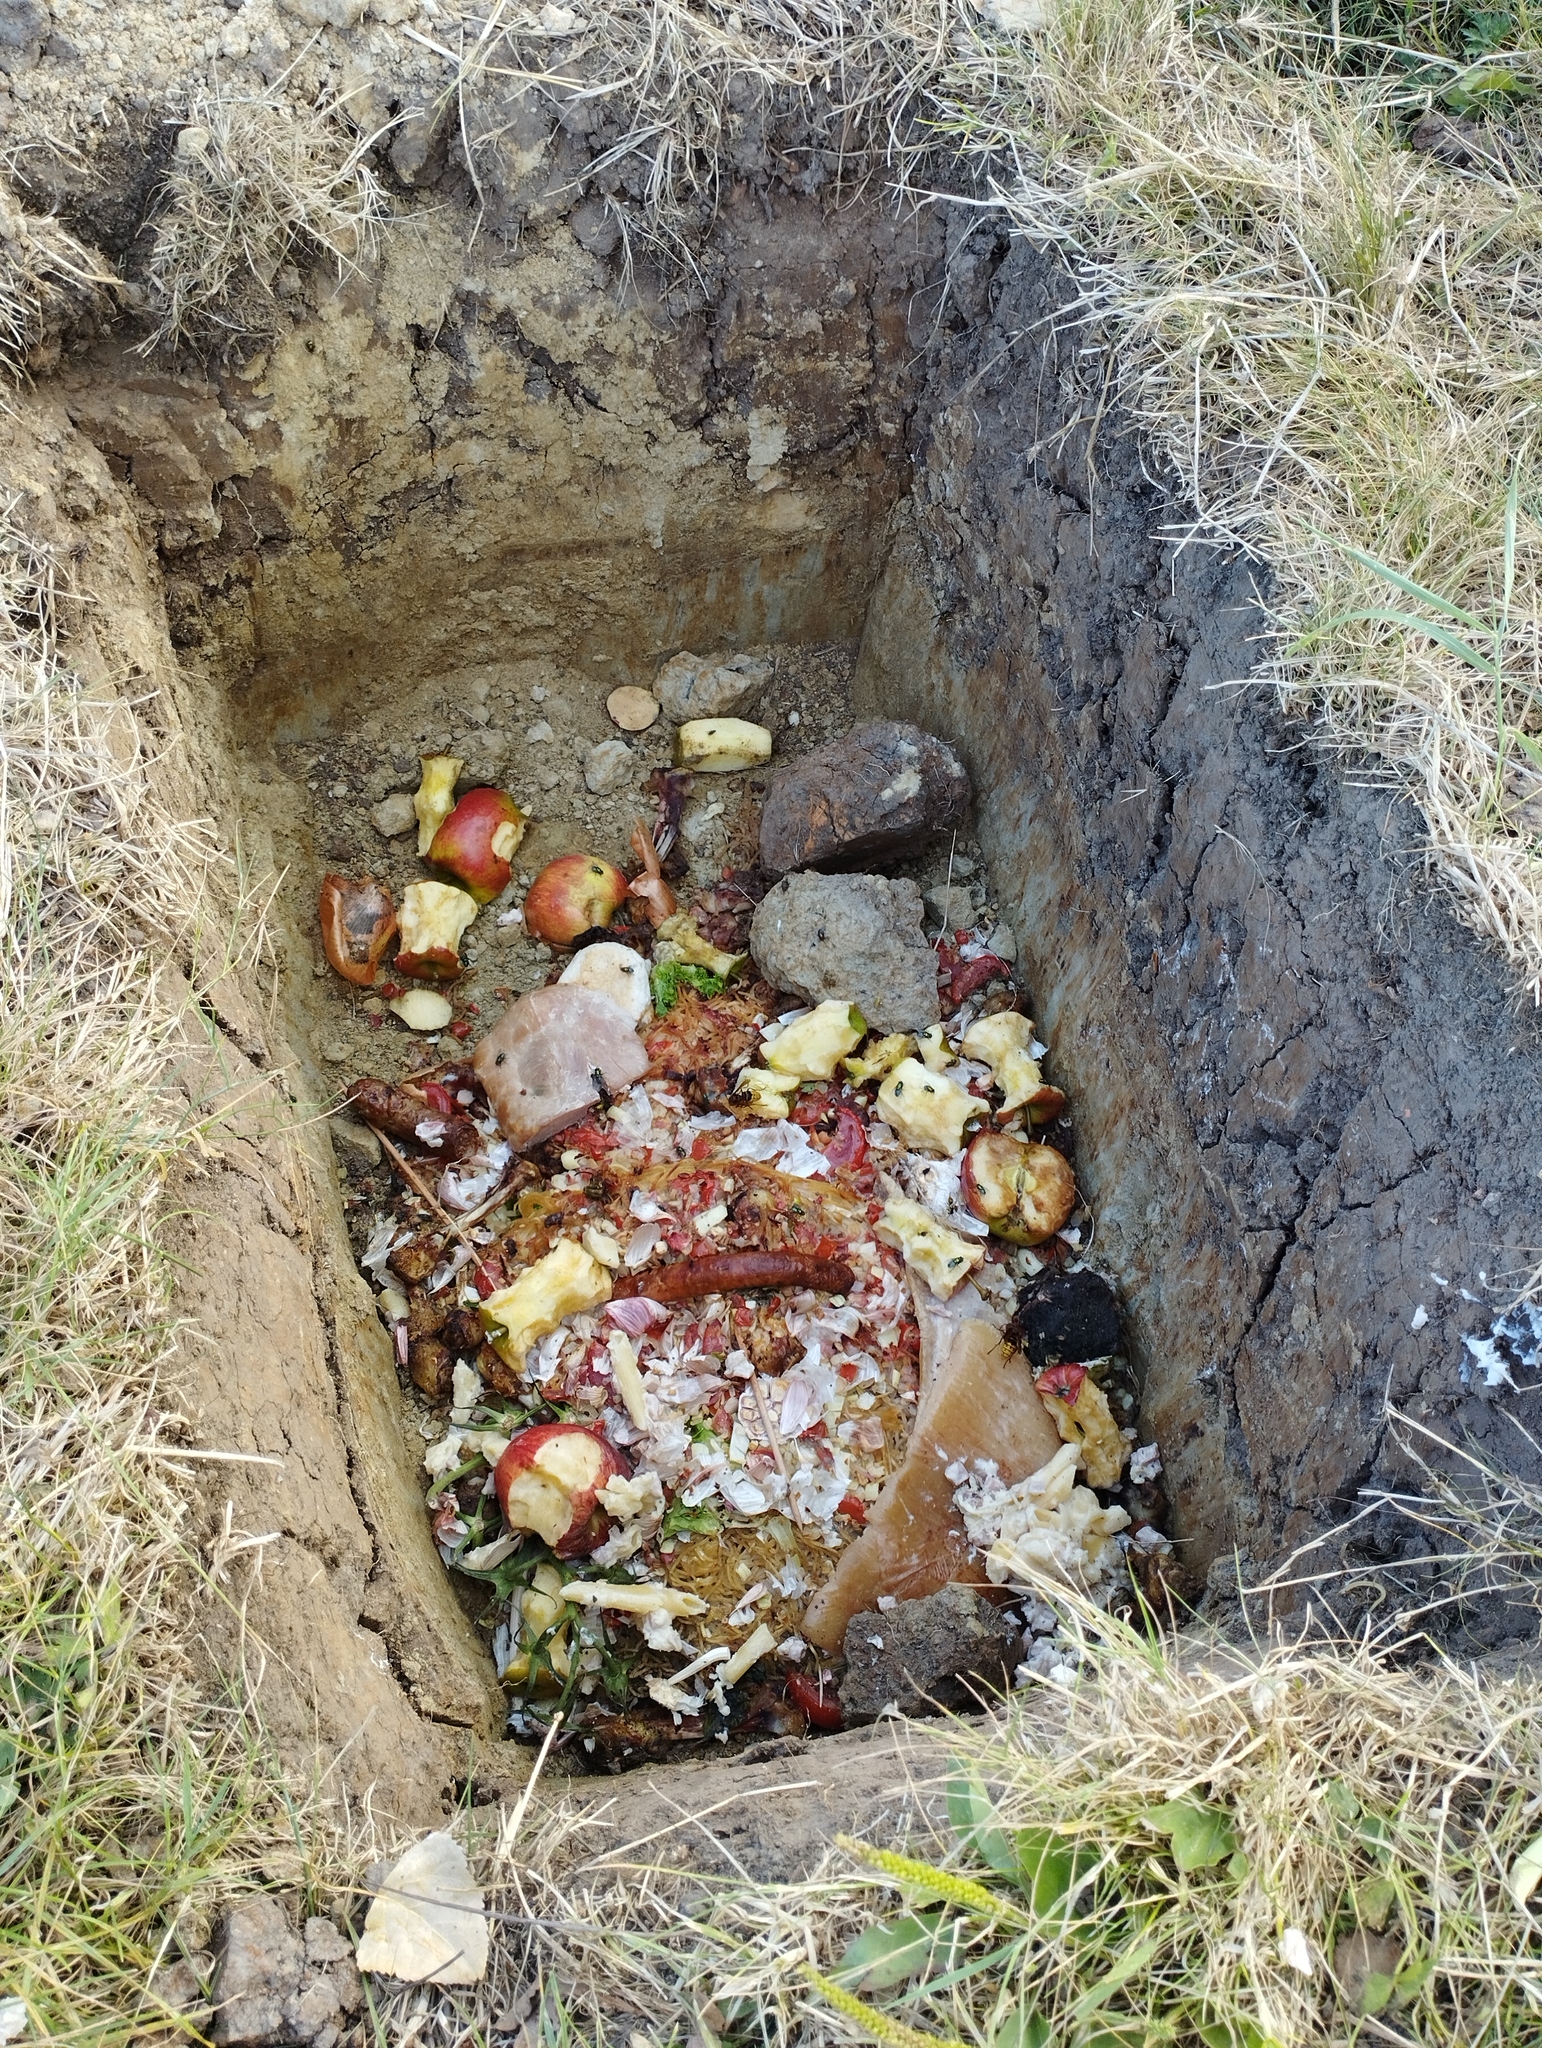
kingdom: Animalia
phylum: Arthropoda
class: Insecta
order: Hymenoptera
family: Vespidae
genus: Vespa
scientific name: Vespa crabro
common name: Hornet
